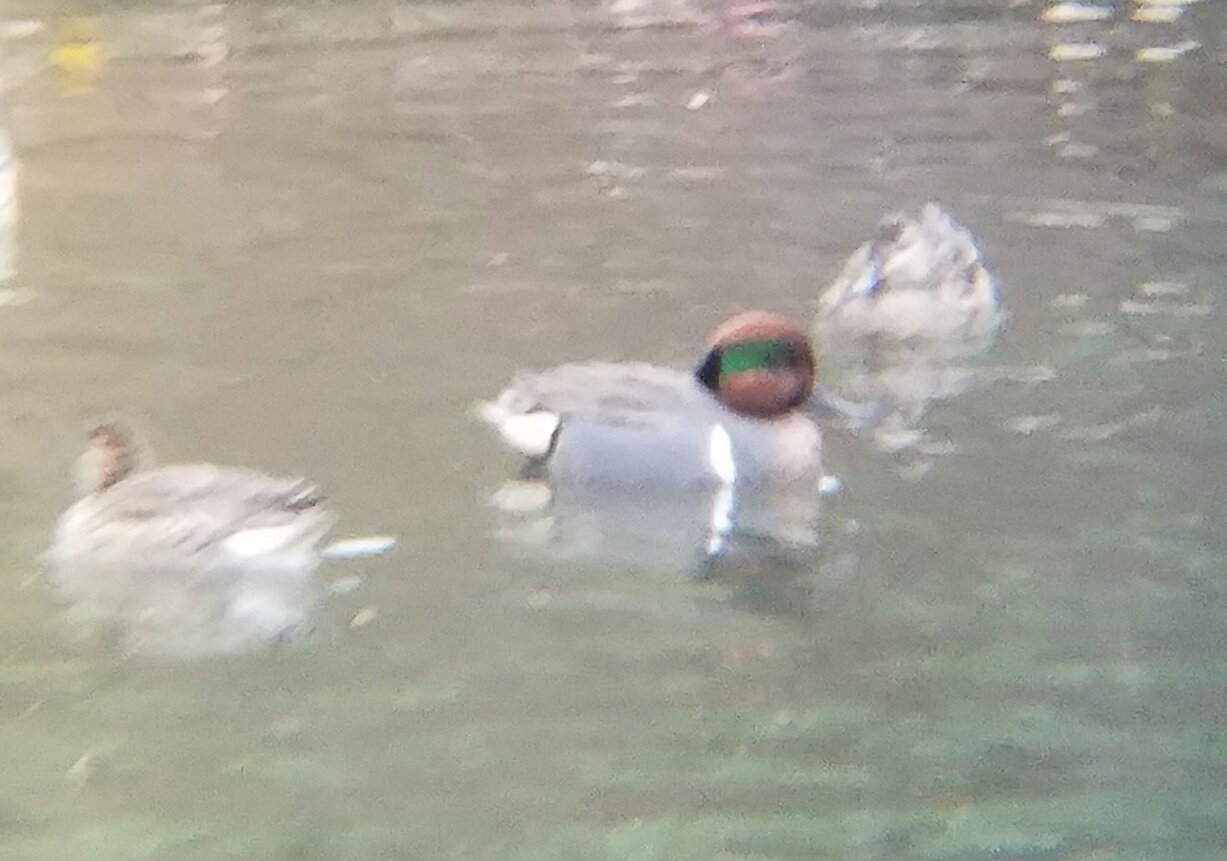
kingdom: Animalia
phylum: Chordata
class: Aves
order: Anseriformes
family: Anatidae
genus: Anas
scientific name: Anas carolinensis
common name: Green-winged teal
